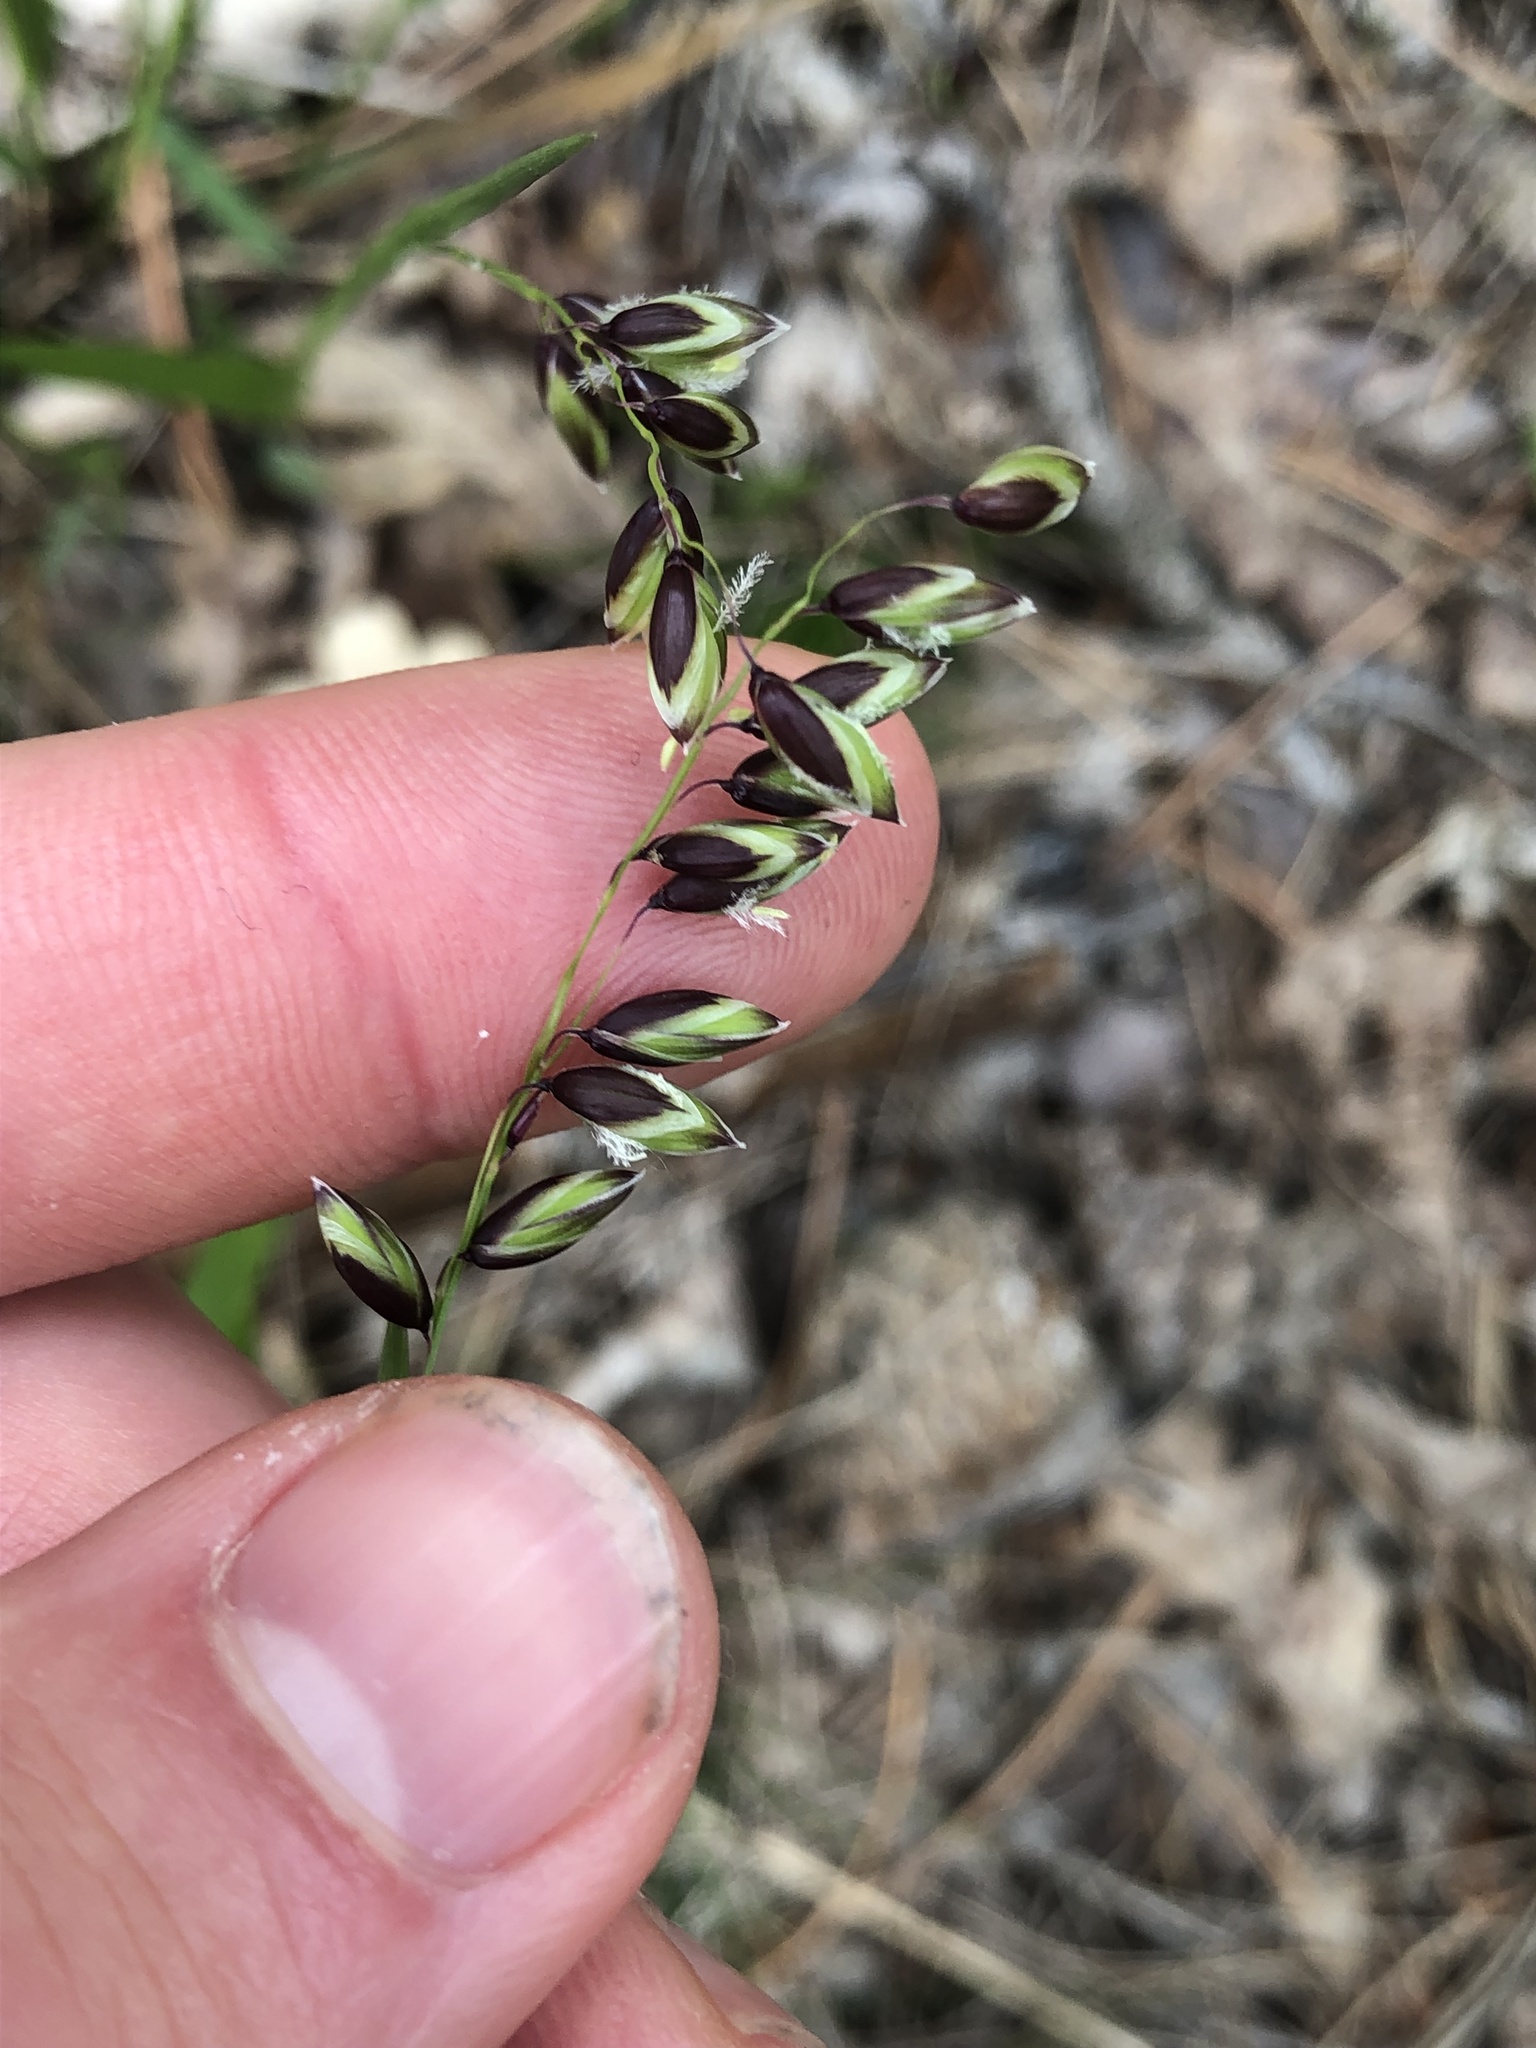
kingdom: Plantae
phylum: Tracheophyta
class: Liliopsida
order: Poales
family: Poaceae
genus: Melica
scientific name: Melica nutans
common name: Mountain melick
